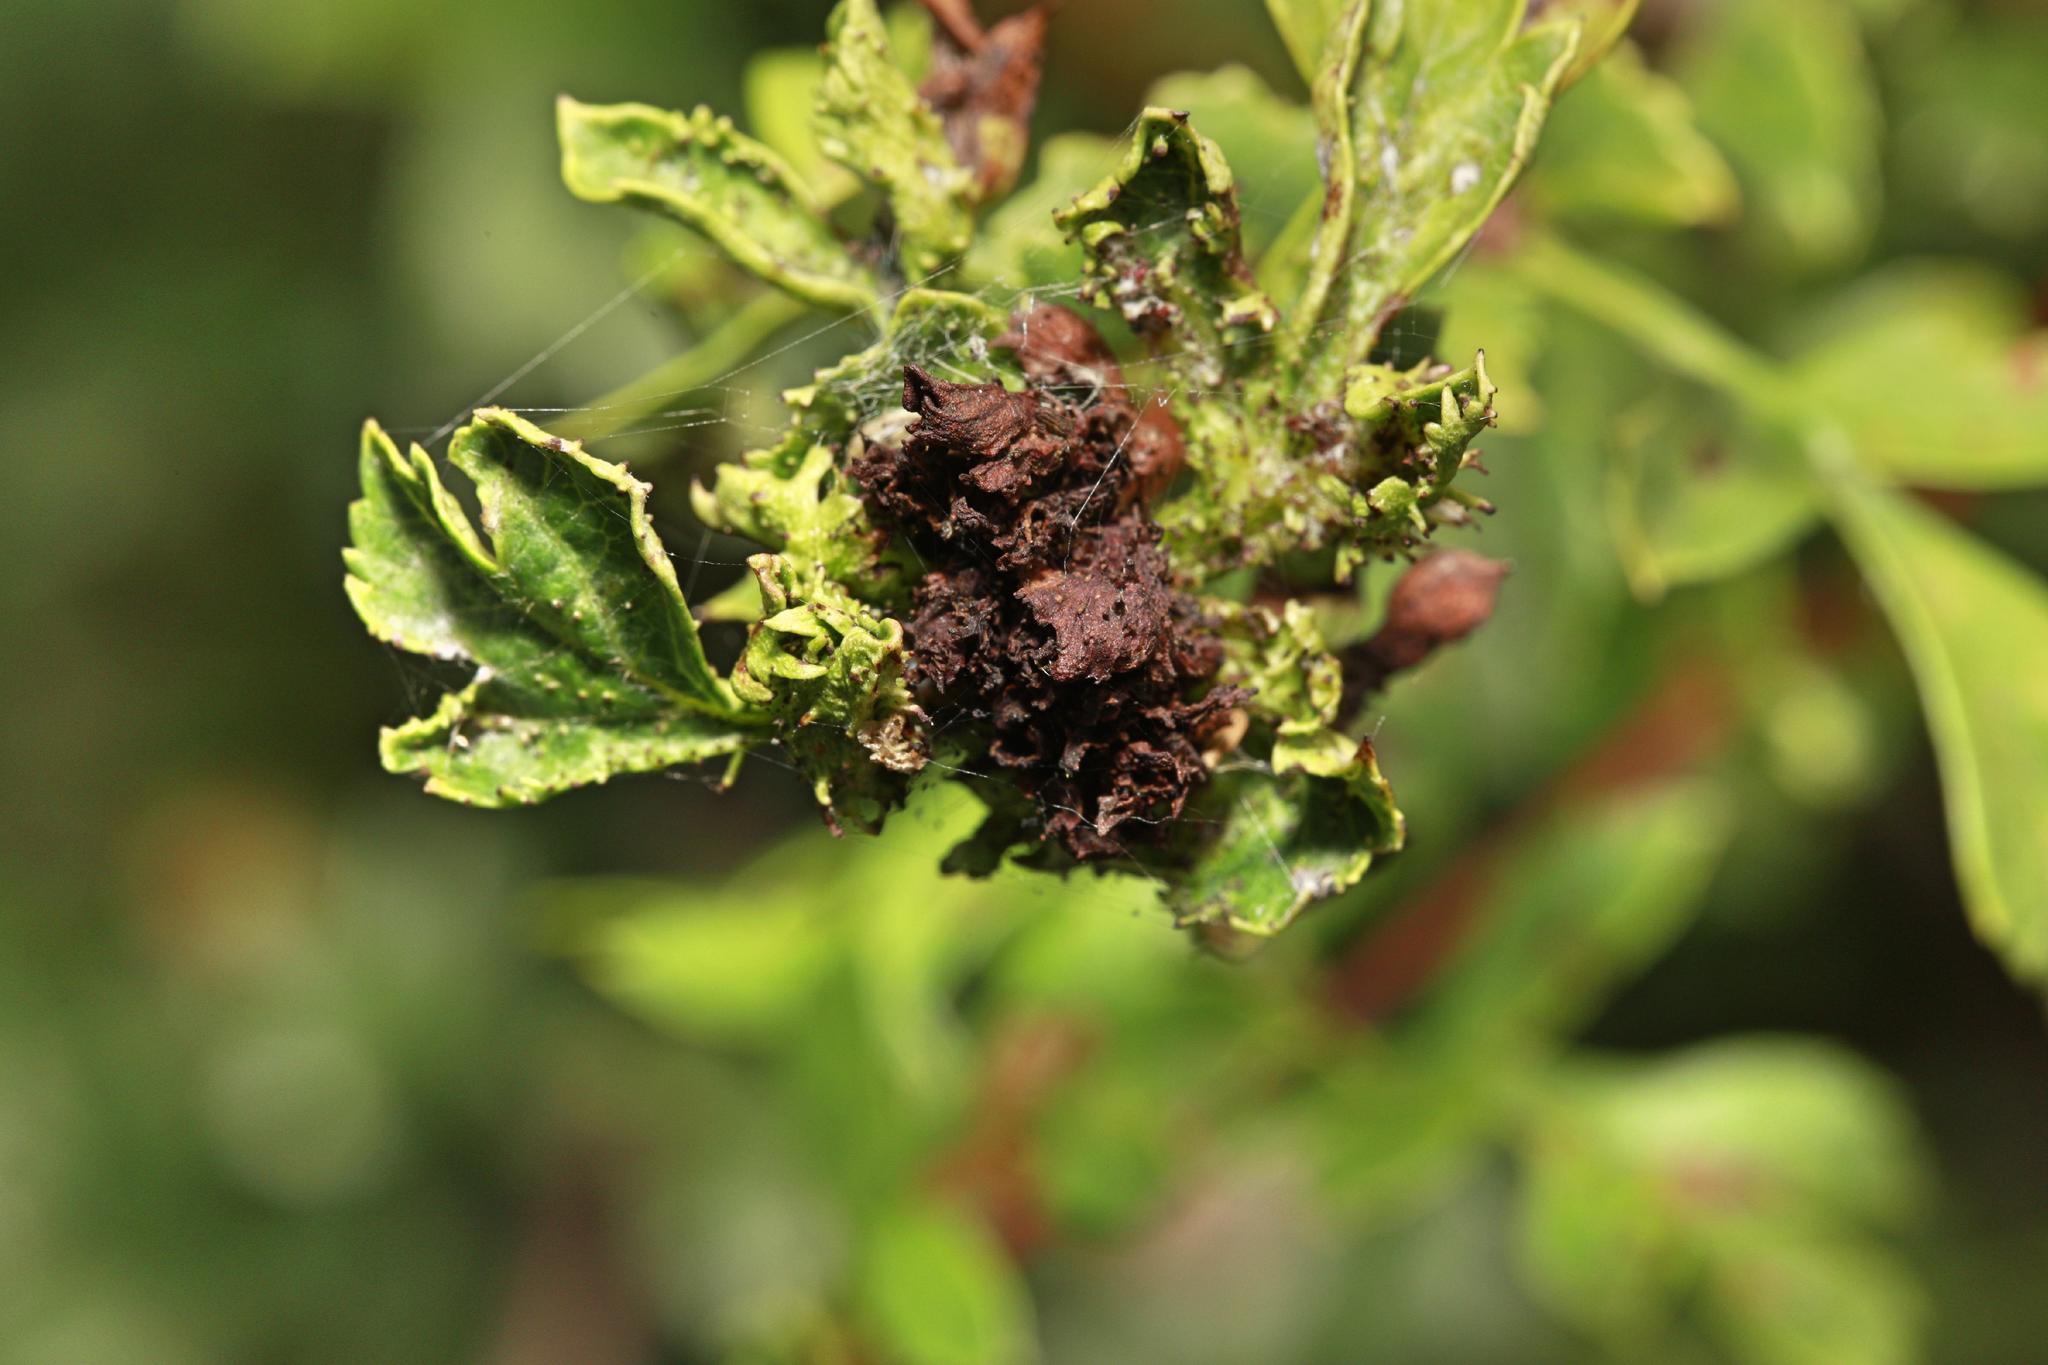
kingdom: Animalia
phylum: Arthropoda
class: Insecta
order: Diptera
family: Cecidomyiidae
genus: Dasineura
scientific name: Dasineura crataegi
